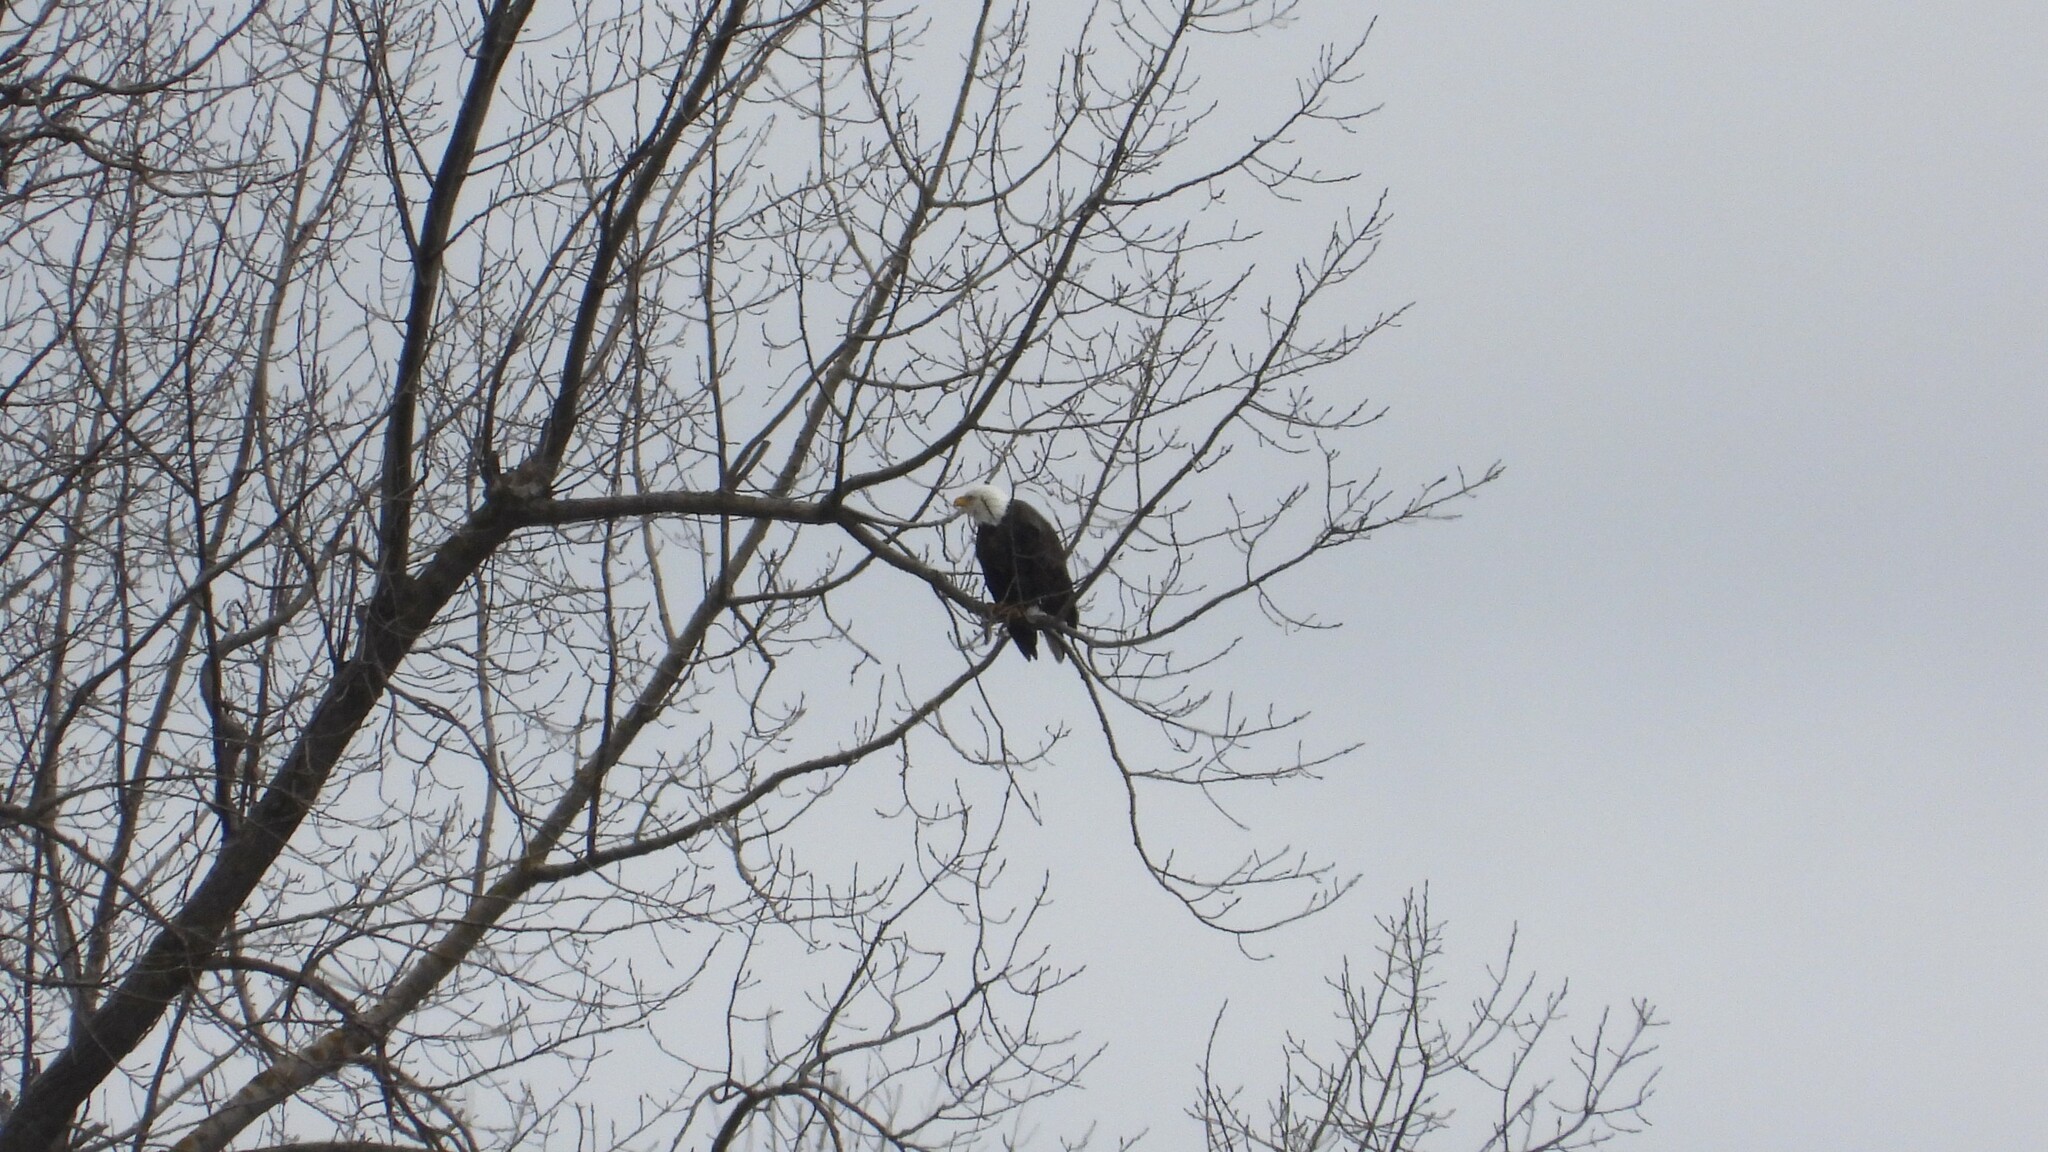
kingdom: Animalia
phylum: Chordata
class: Aves
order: Accipitriformes
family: Accipitridae
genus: Haliaeetus
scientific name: Haliaeetus leucocephalus
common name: Bald eagle
